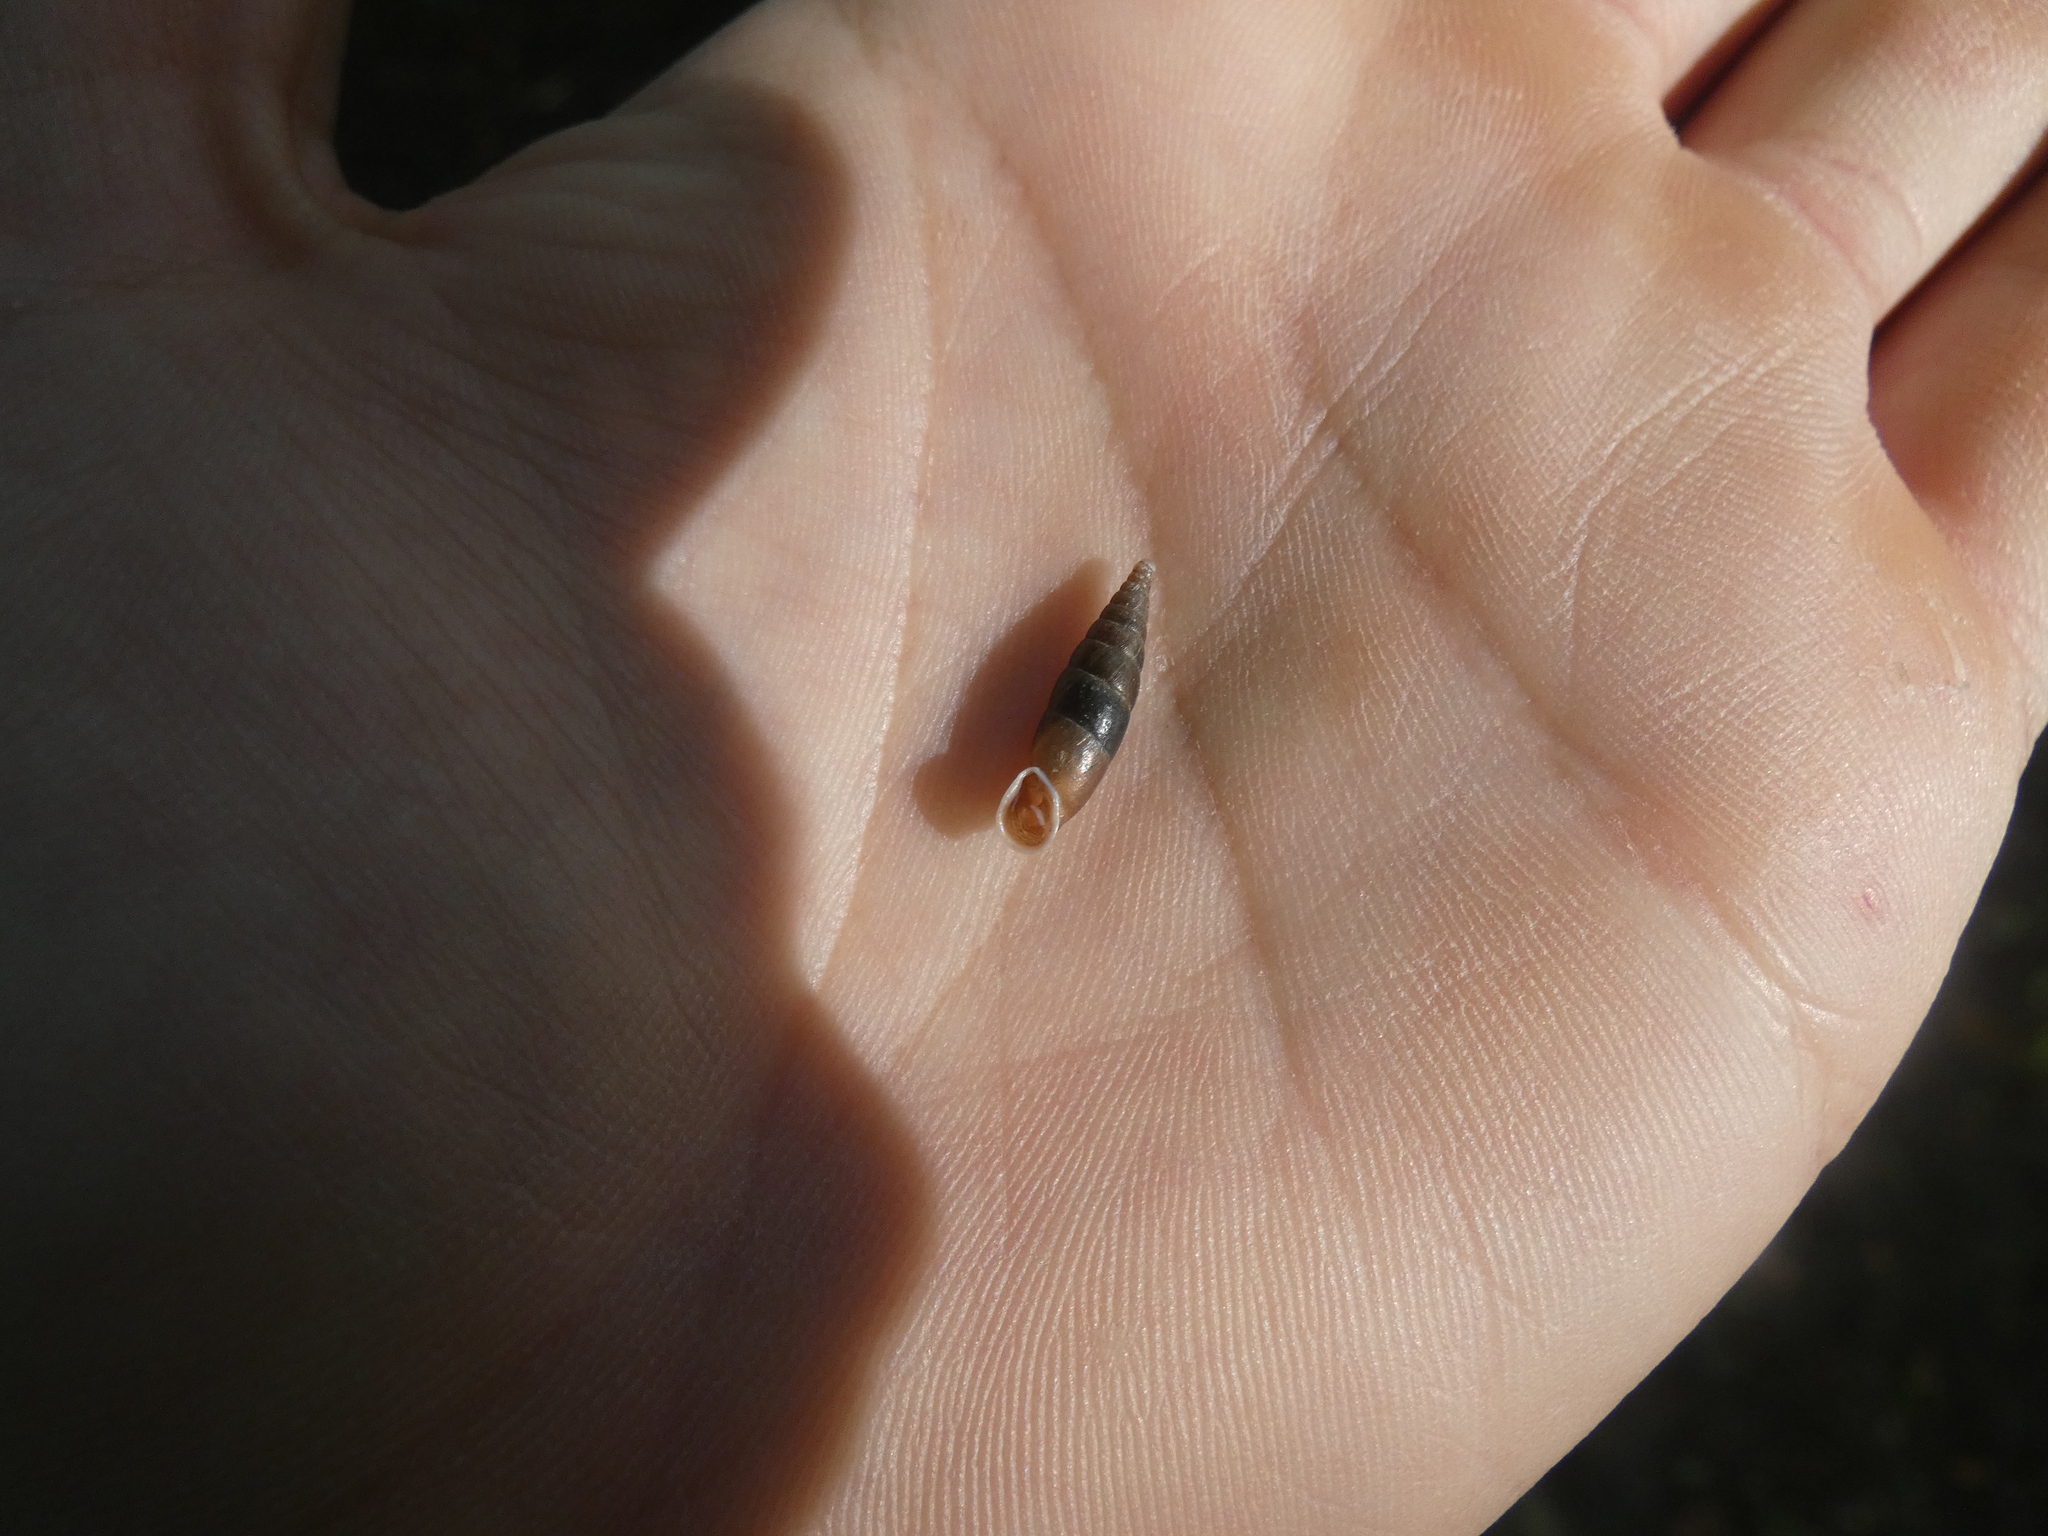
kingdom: Animalia
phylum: Mollusca
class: Gastropoda
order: Stylommatophora
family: Clausiliidae
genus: Cochlodina
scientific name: Cochlodina laminata
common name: Plaited door snail
